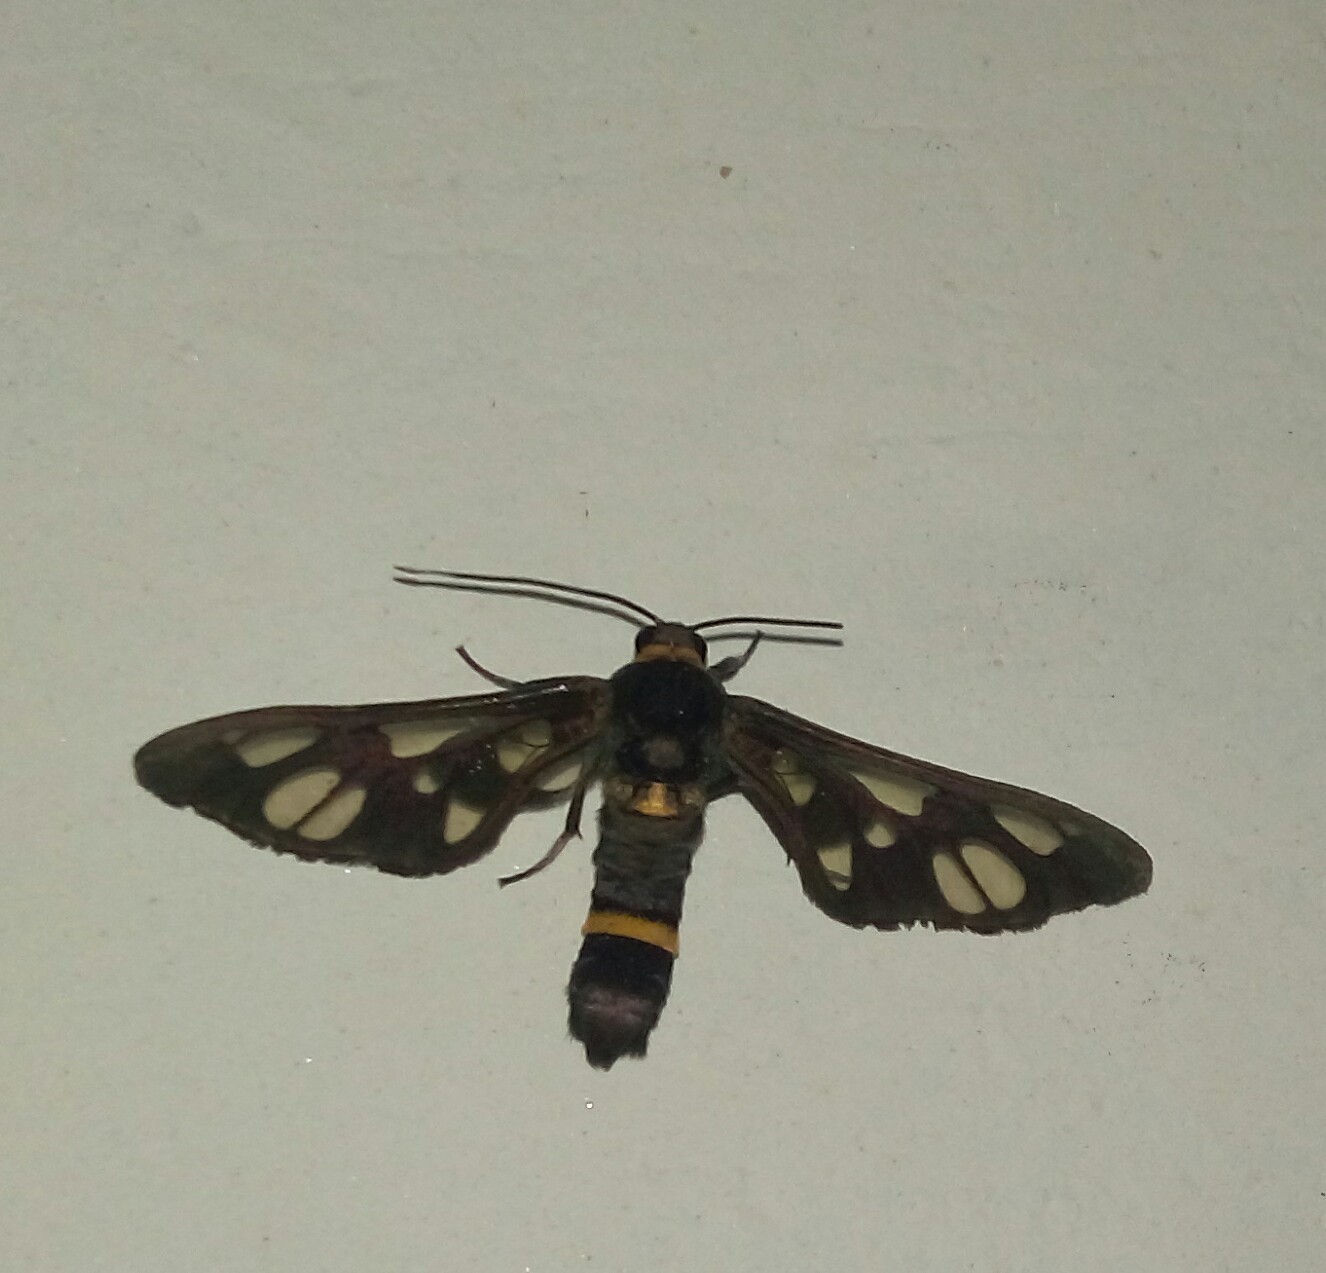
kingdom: Animalia
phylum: Arthropoda
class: Insecta
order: Lepidoptera
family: Erebidae
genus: Syntomoides
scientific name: Syntomoides imaon
